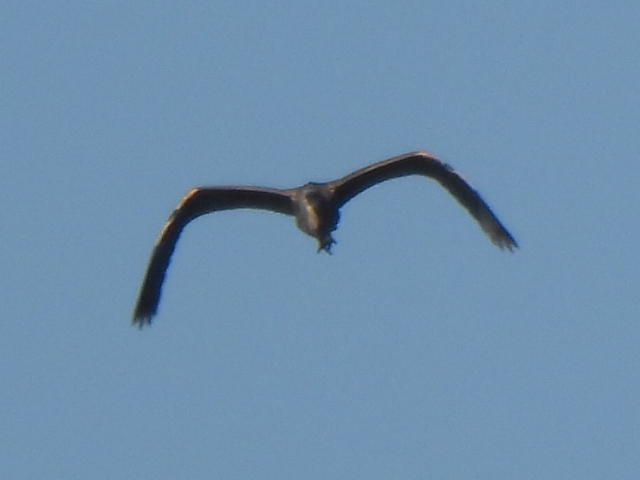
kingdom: Animalia
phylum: Chordata
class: Aves
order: Pelecaniformes
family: Ardeidae
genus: Ardea
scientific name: Ardea herodias
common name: Great blue heron
